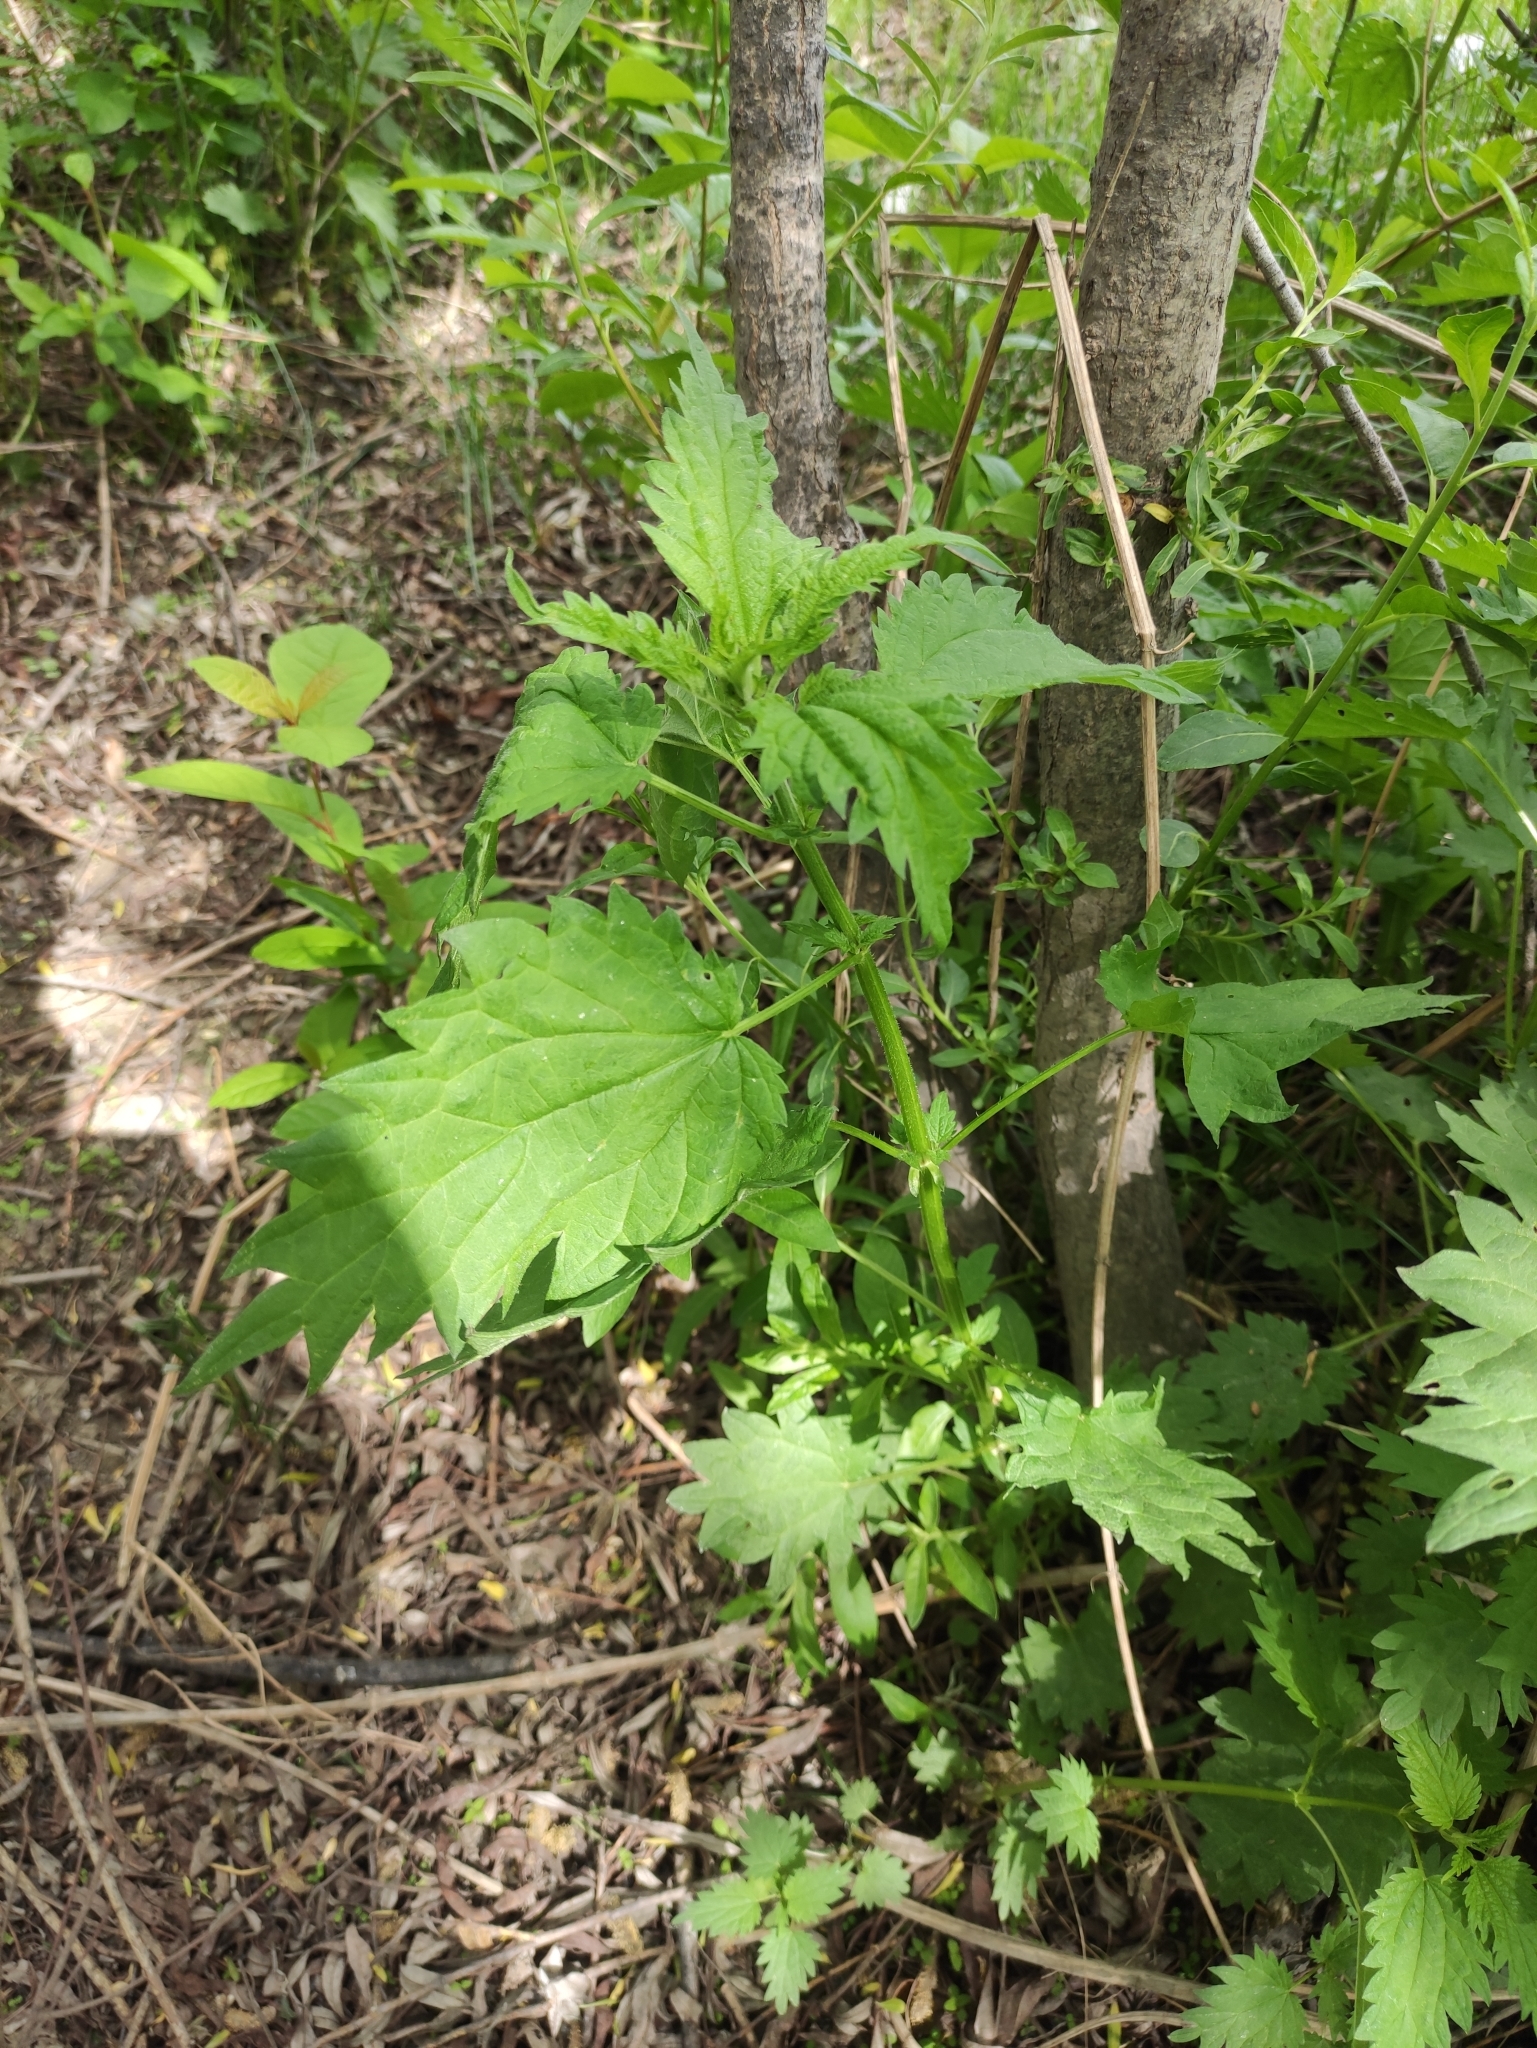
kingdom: Plantae
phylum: Tracheophyta
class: Magnoliopsida
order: Rosales
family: Urticaceae
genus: Urtica
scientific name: Urtica dioica
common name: Common nettle
